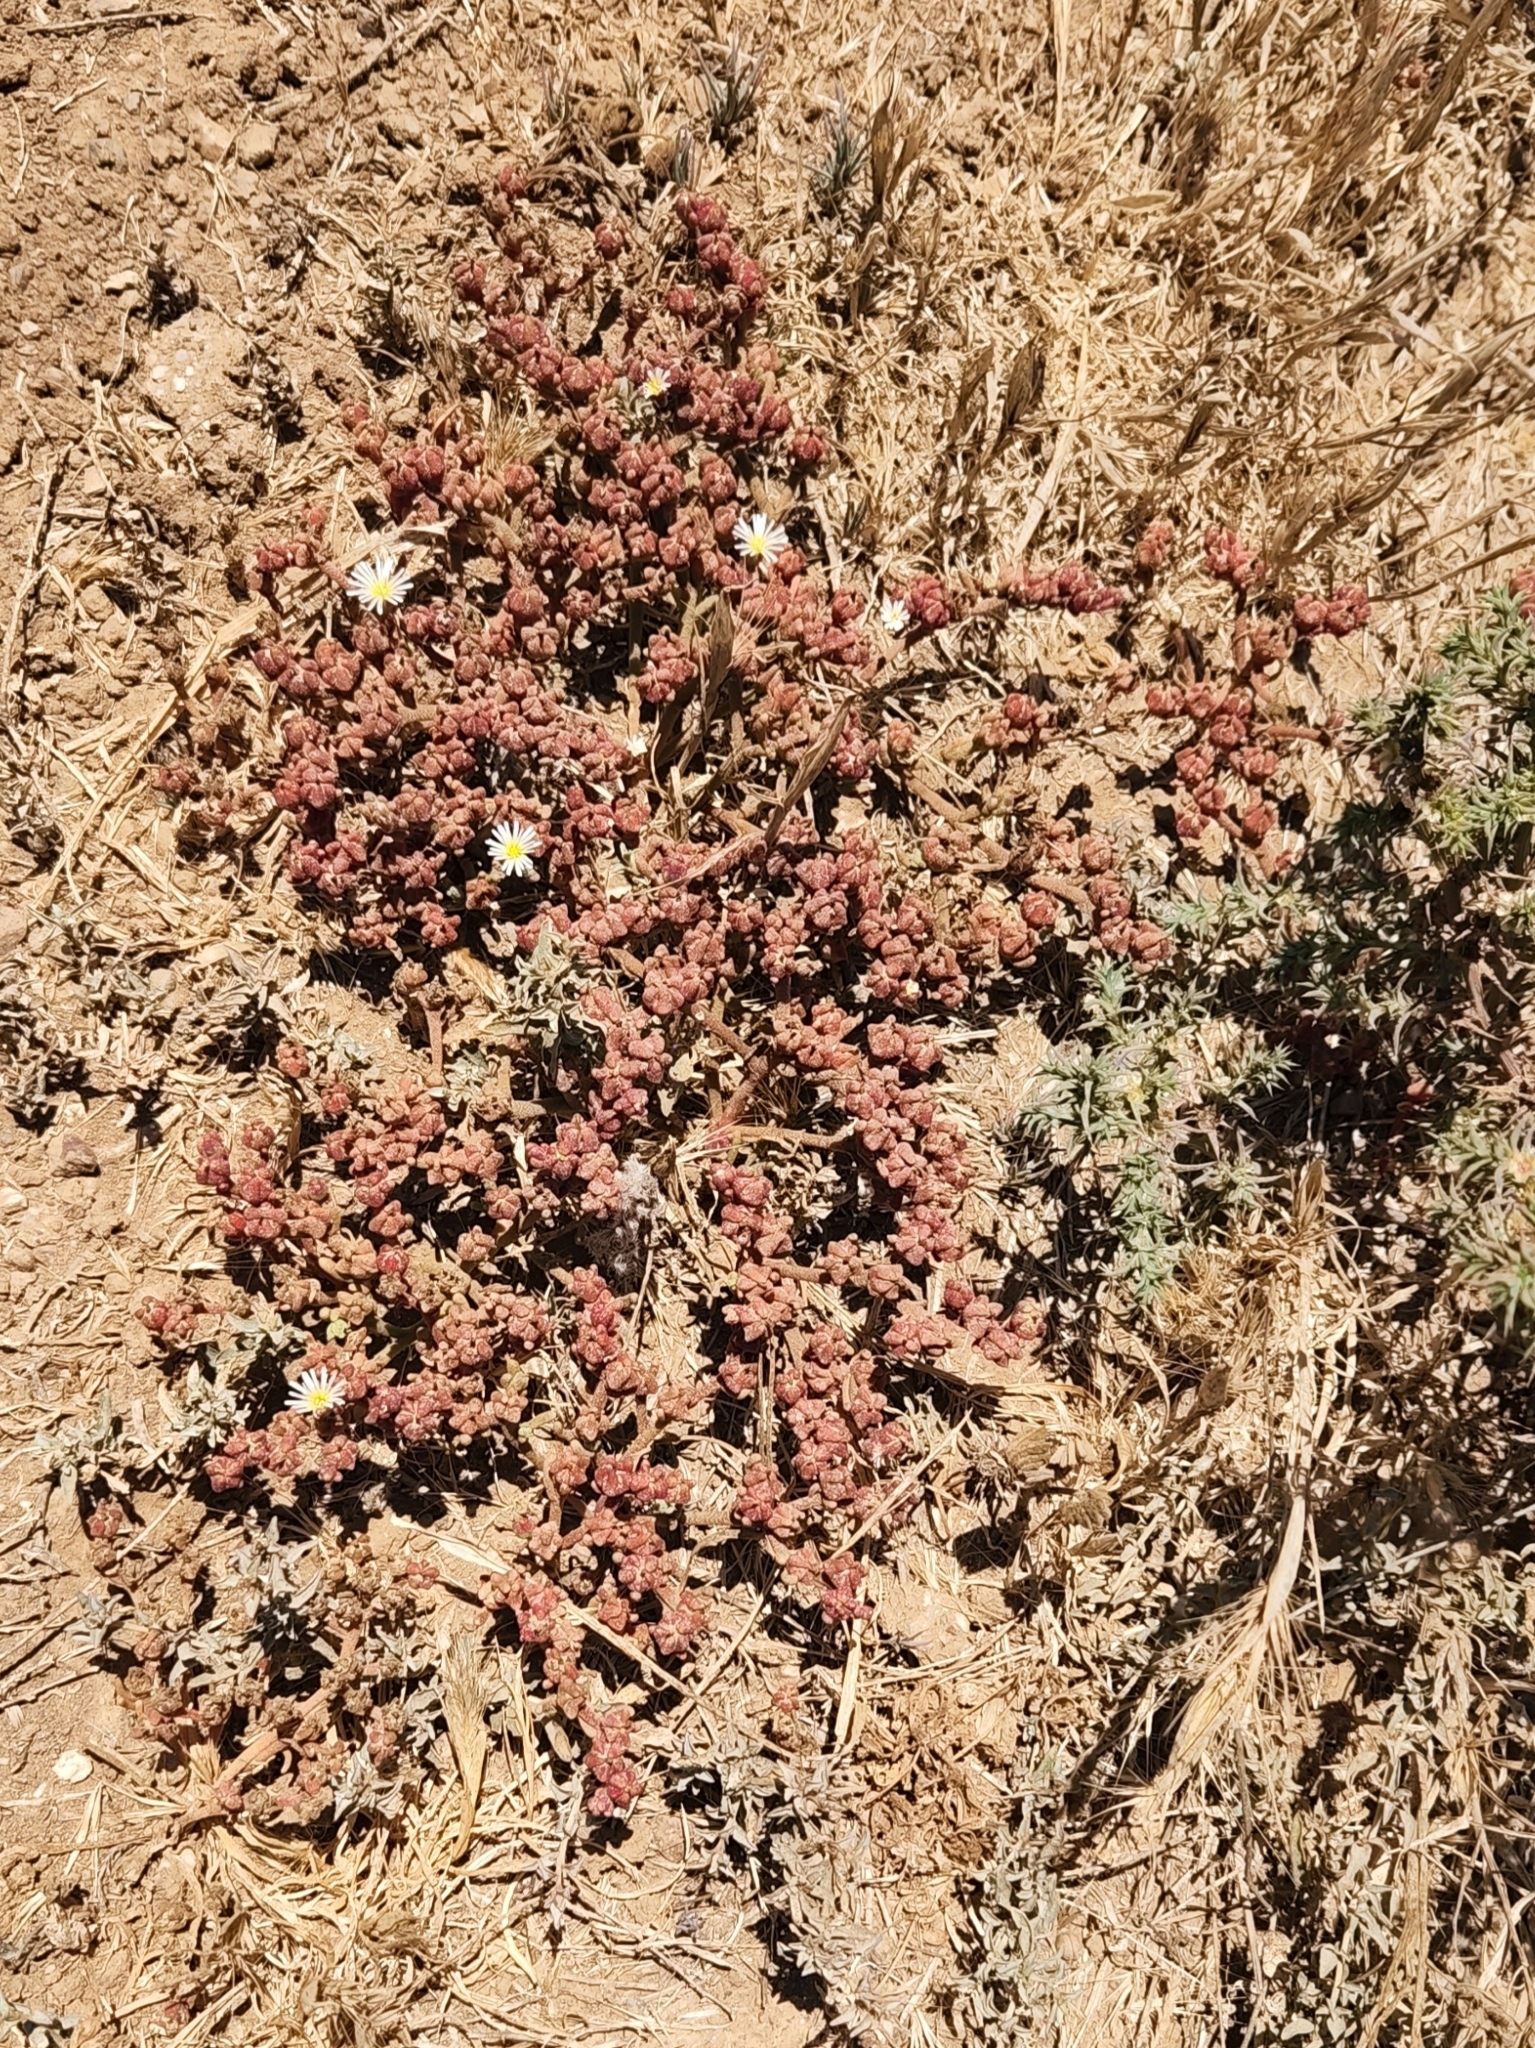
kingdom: Plantae
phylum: Tracheophyta
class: Magnoliopsida
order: Caryophyllales
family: Aizoaceae
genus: Mesembryanthemum
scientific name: Mesembryanthemum nodiflorum
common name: Slenderleaf iceplant
